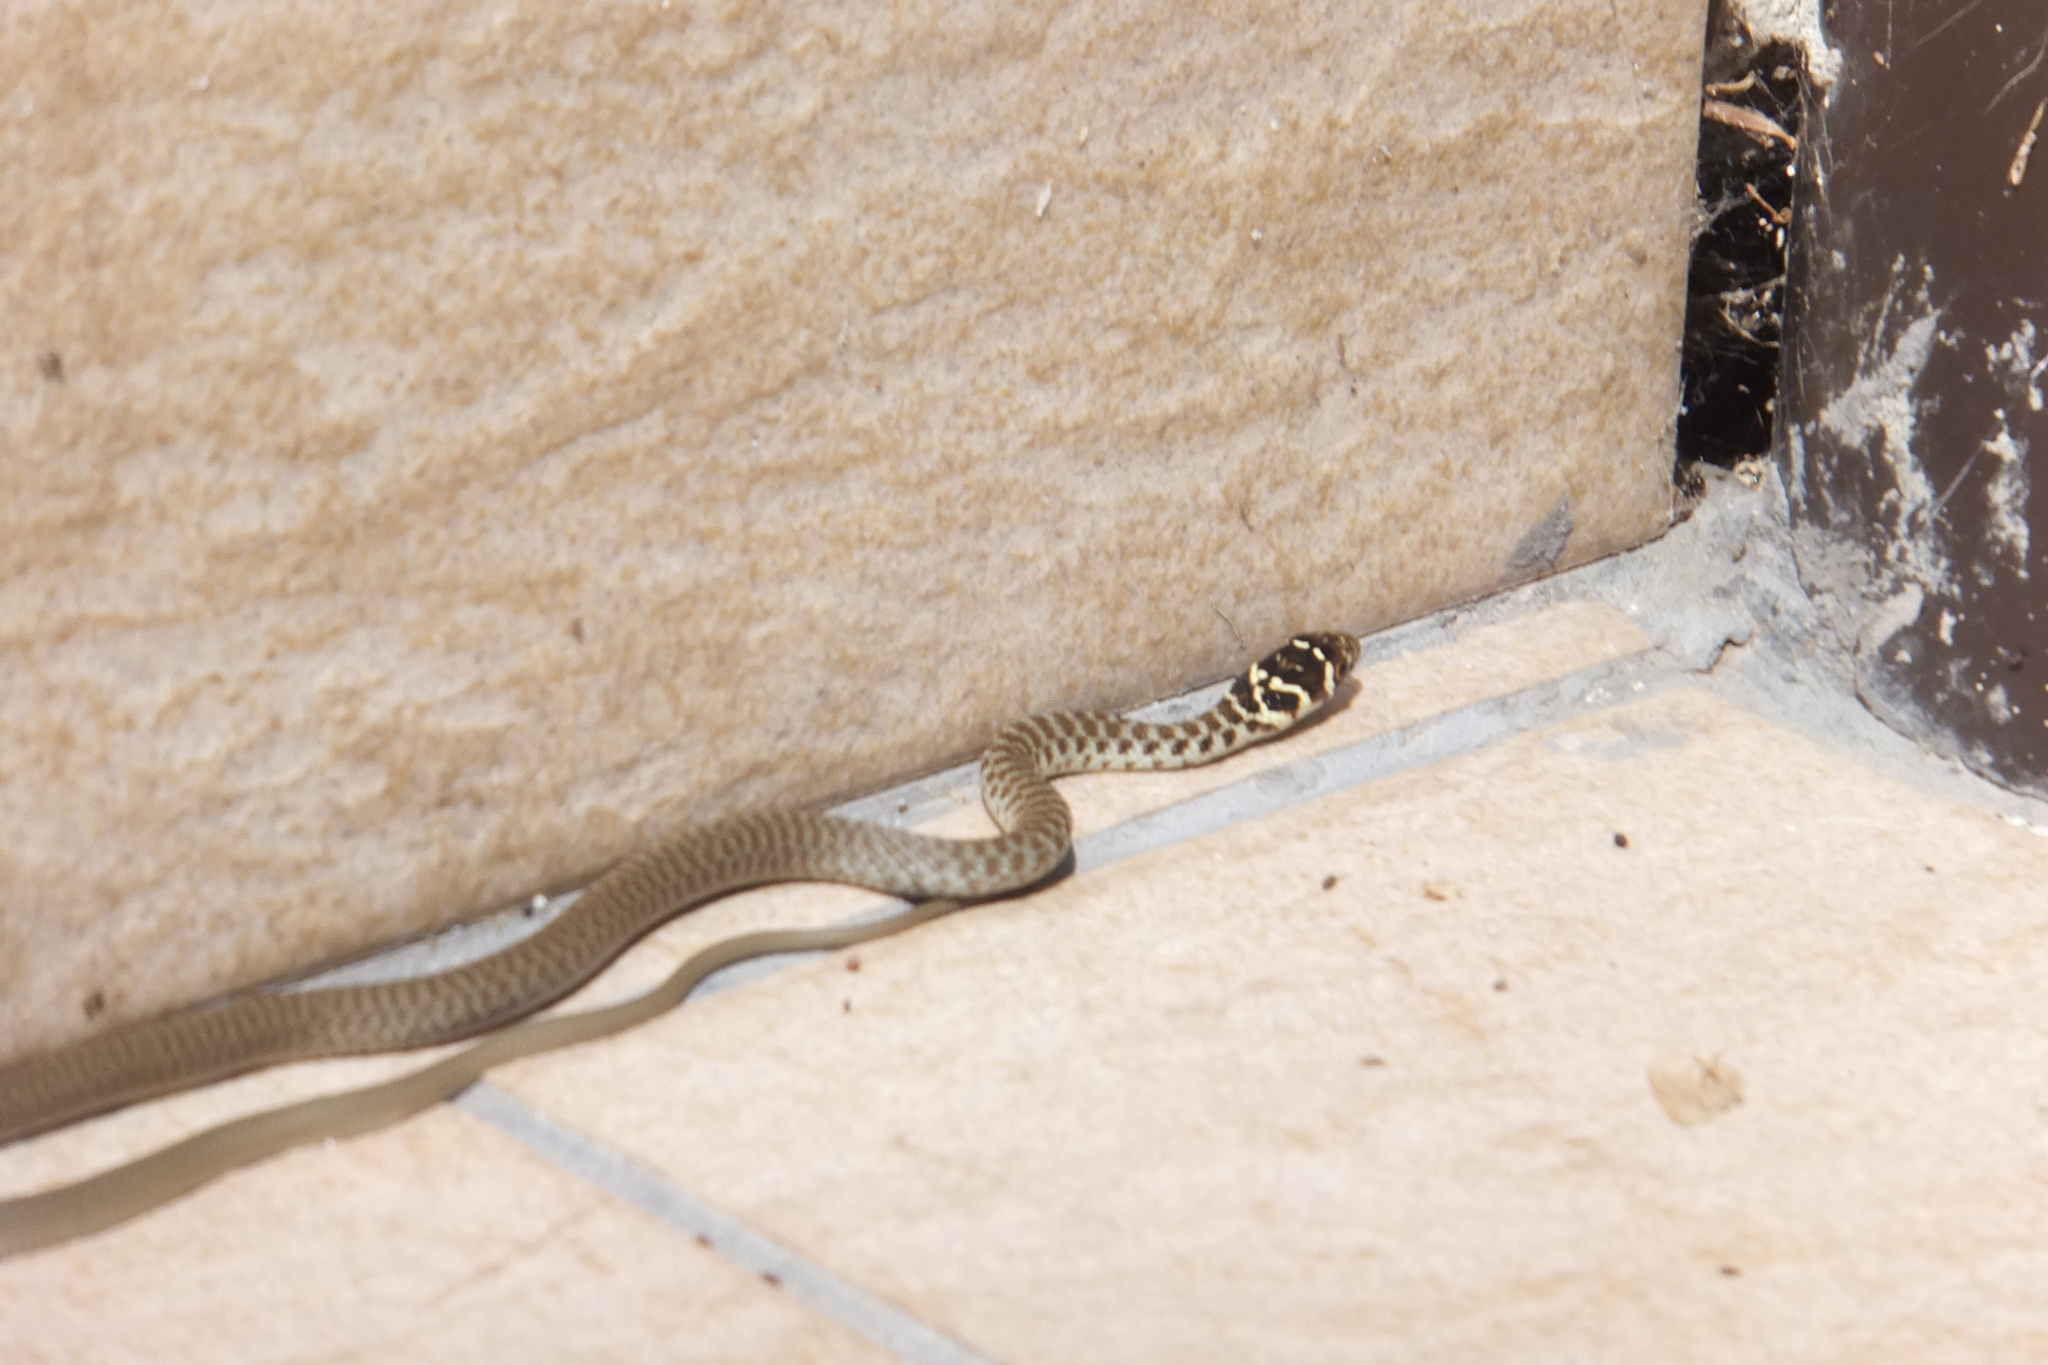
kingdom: Animalia
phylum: Chordata
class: Squamata
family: Colubridae
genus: Hierophis
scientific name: Hierophis viridiflavus
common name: Green whip snake
